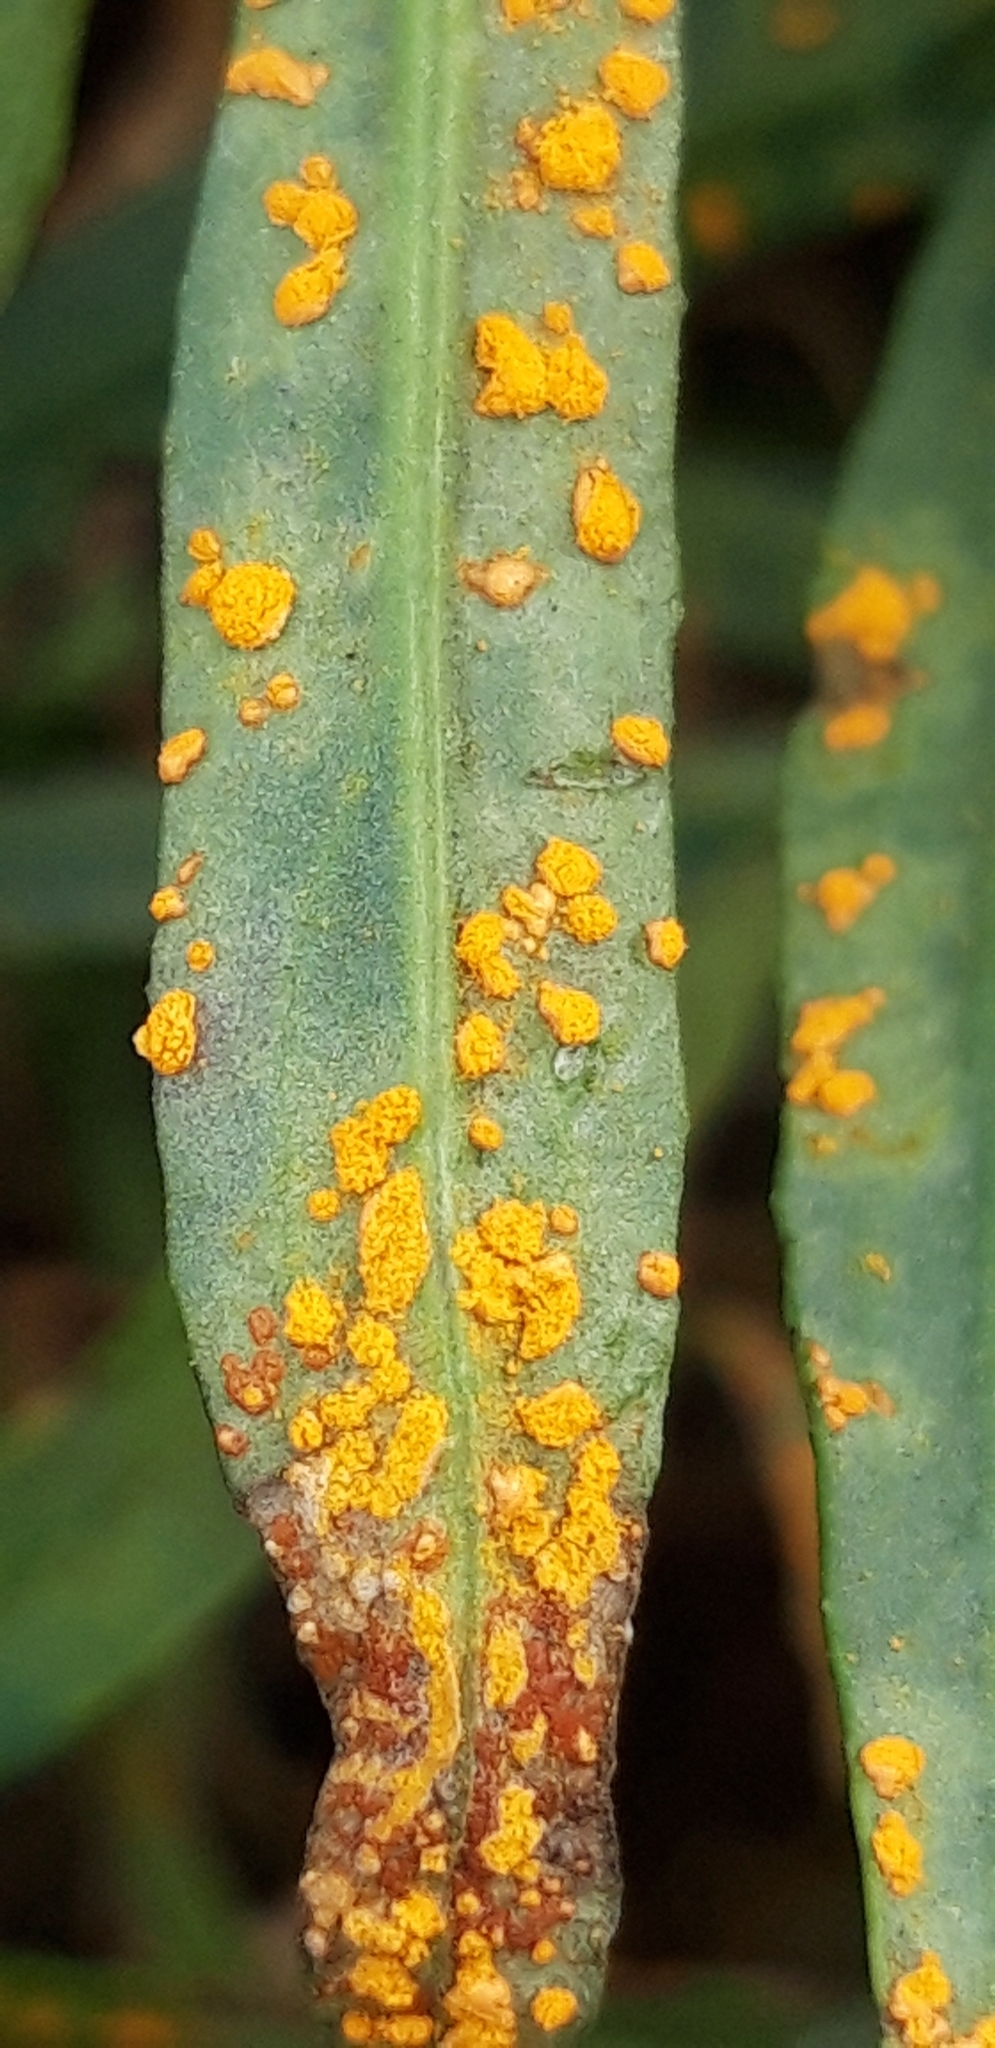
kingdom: Fungi
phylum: Basidiomycota
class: Pucciniomycetes
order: Pucciniales
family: Coleosporiaceae
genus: Coleosporium
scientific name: Coleosporium senecionis
